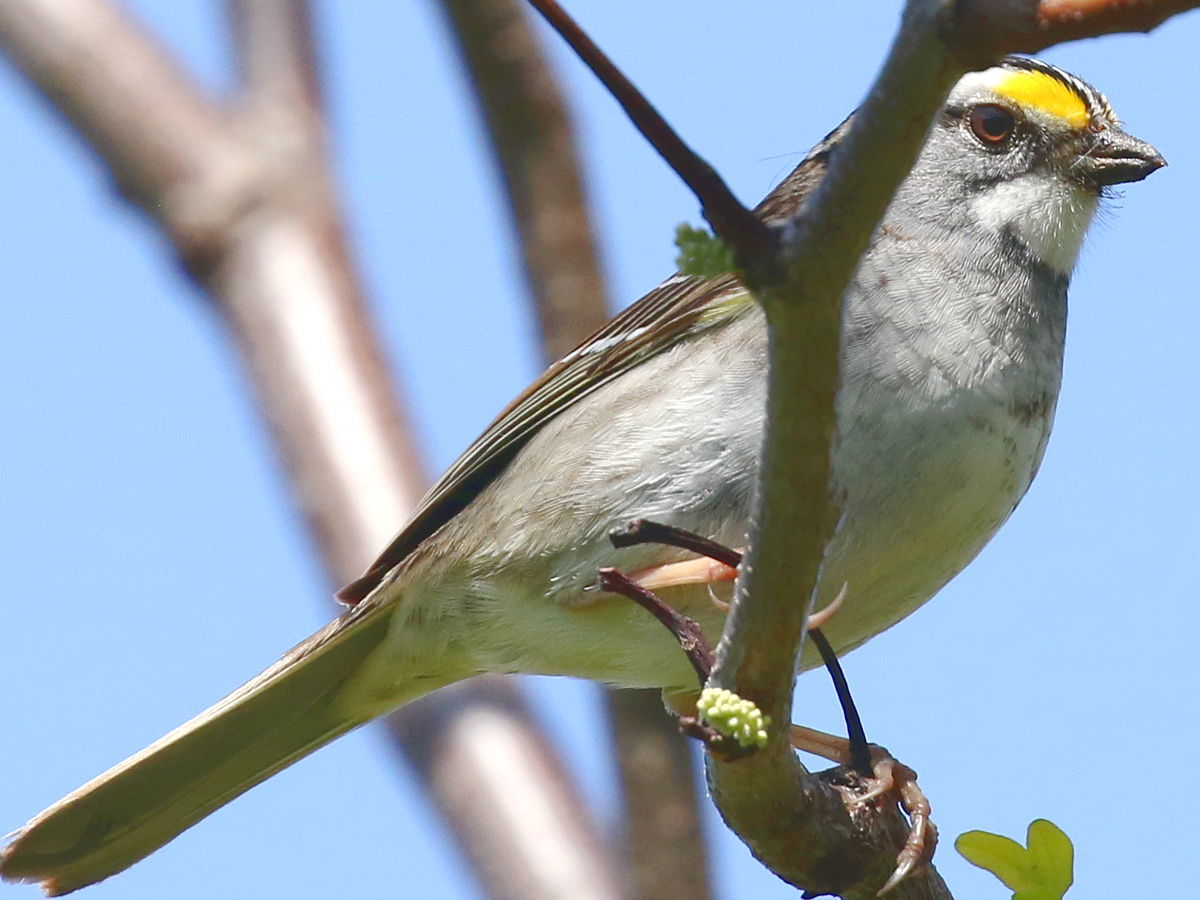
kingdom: Animalia
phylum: Chordata
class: Aves
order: Passeriformes
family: Passerellidae
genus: Zonotrichia
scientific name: Zonotrichia albicollis
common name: White-throated sparrow
